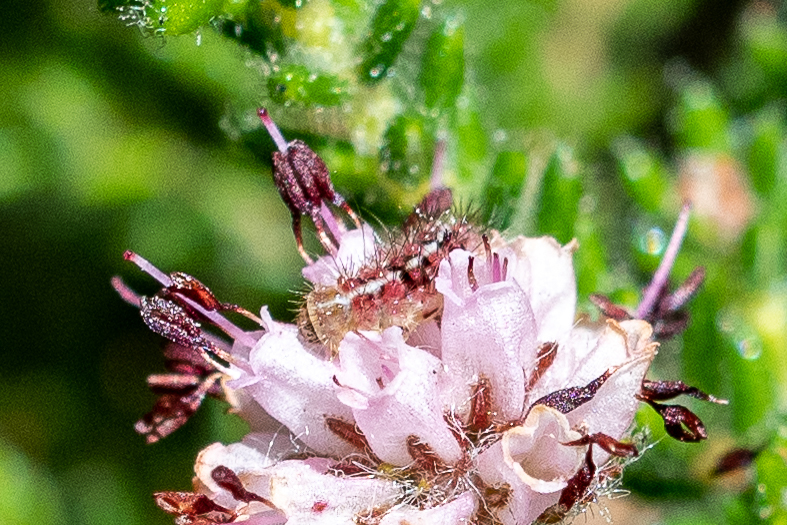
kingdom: Animalia
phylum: Arthropoda
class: Insecta
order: Lepidoptera
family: Nolidae
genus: Nolidia
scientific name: Nolidia unipuncta
